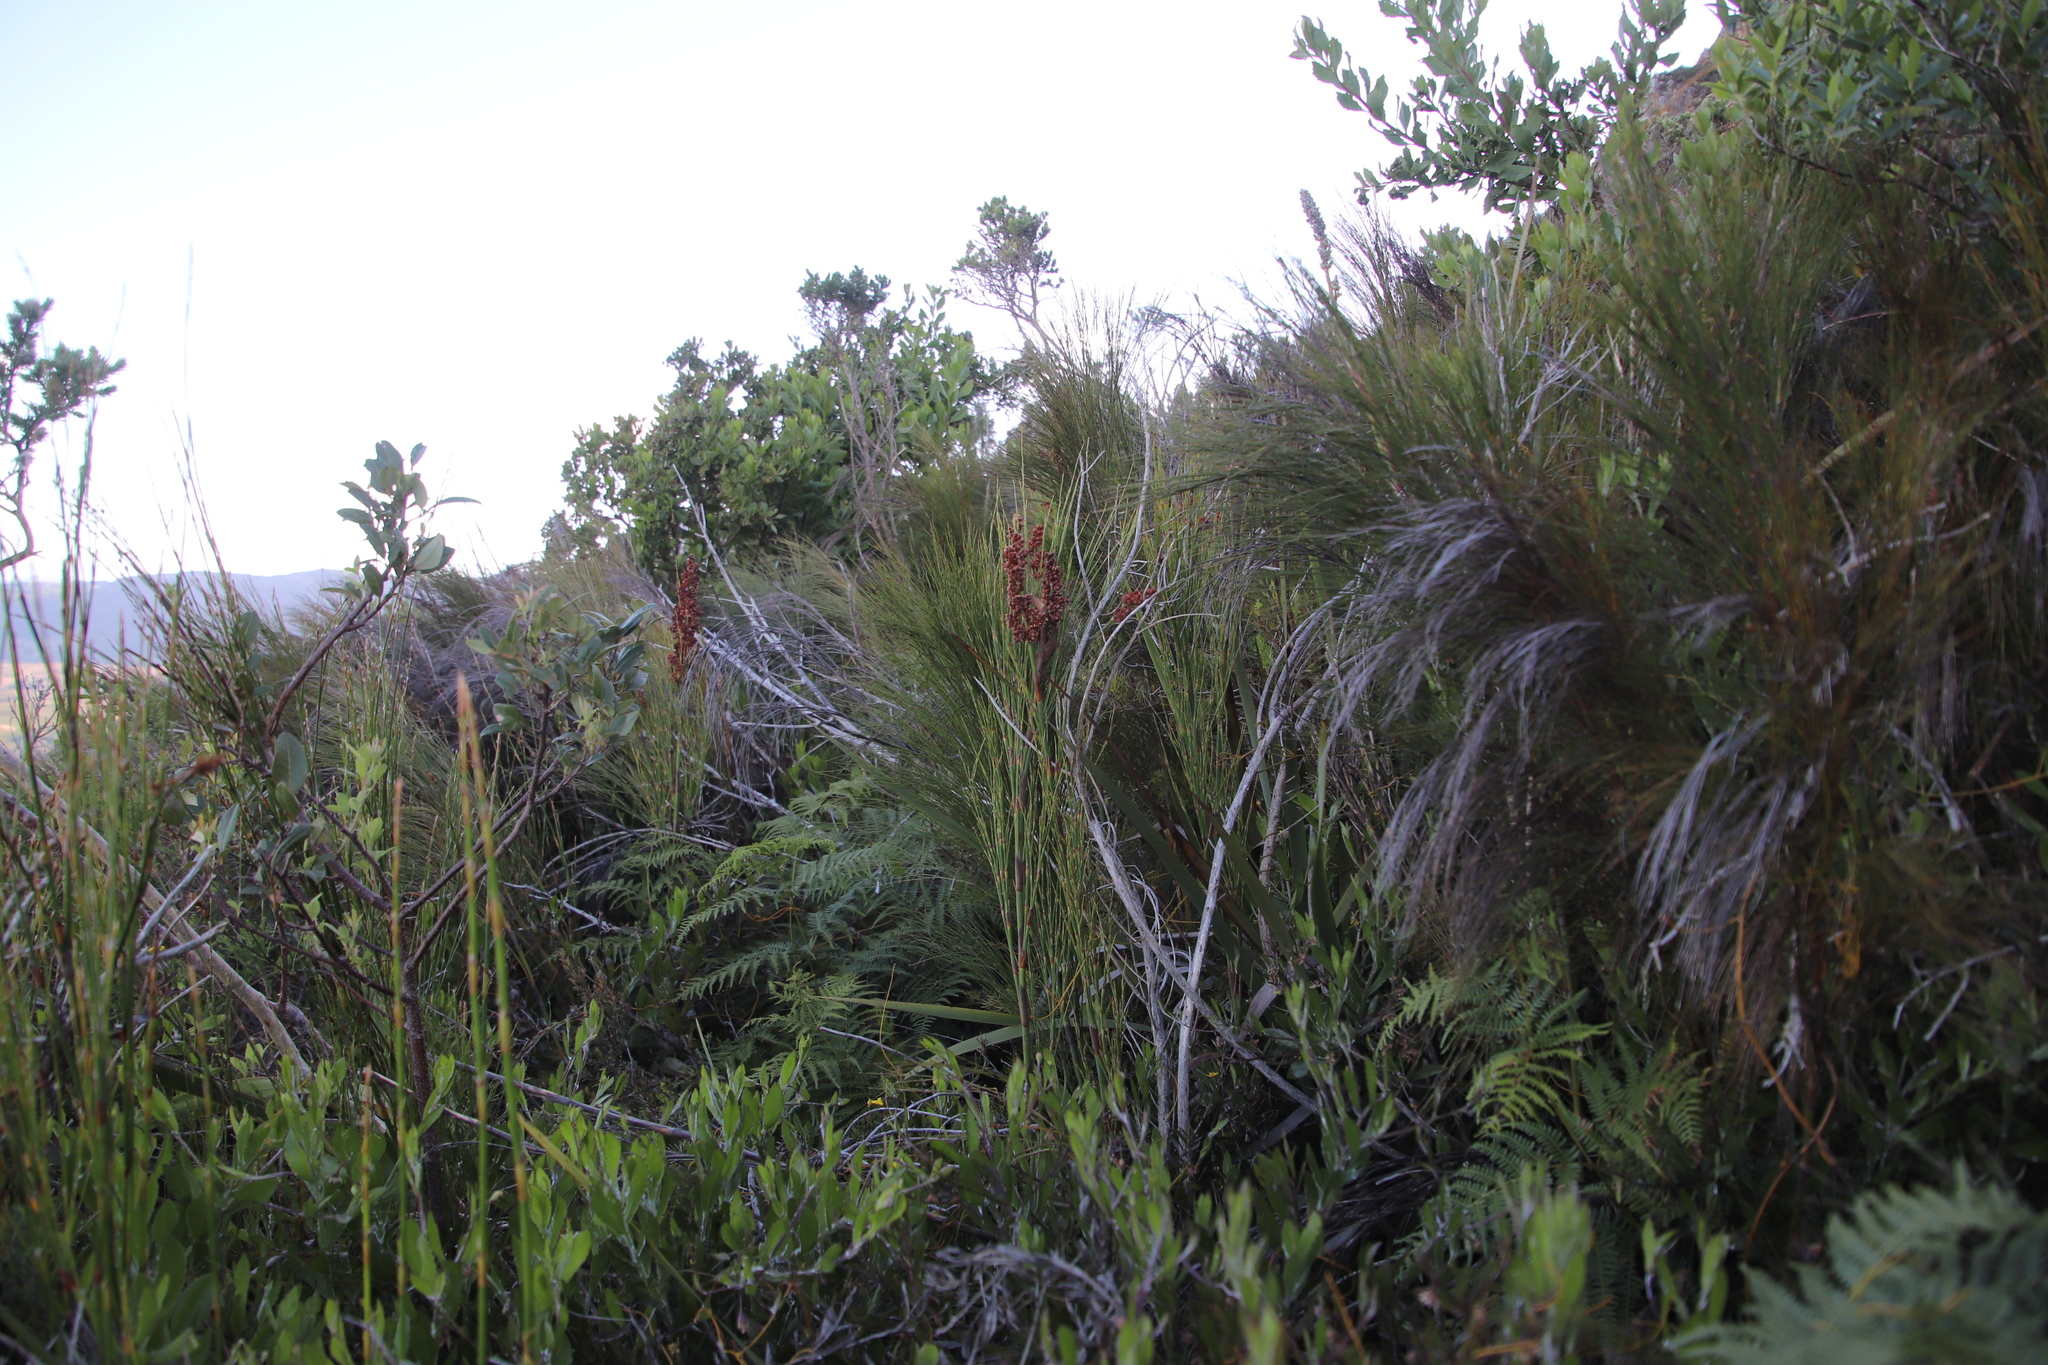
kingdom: Plantae
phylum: Tracheophyta
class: Liliopsida
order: Poales
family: Restionaceae
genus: Cannomois
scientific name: Cannomois virgata
